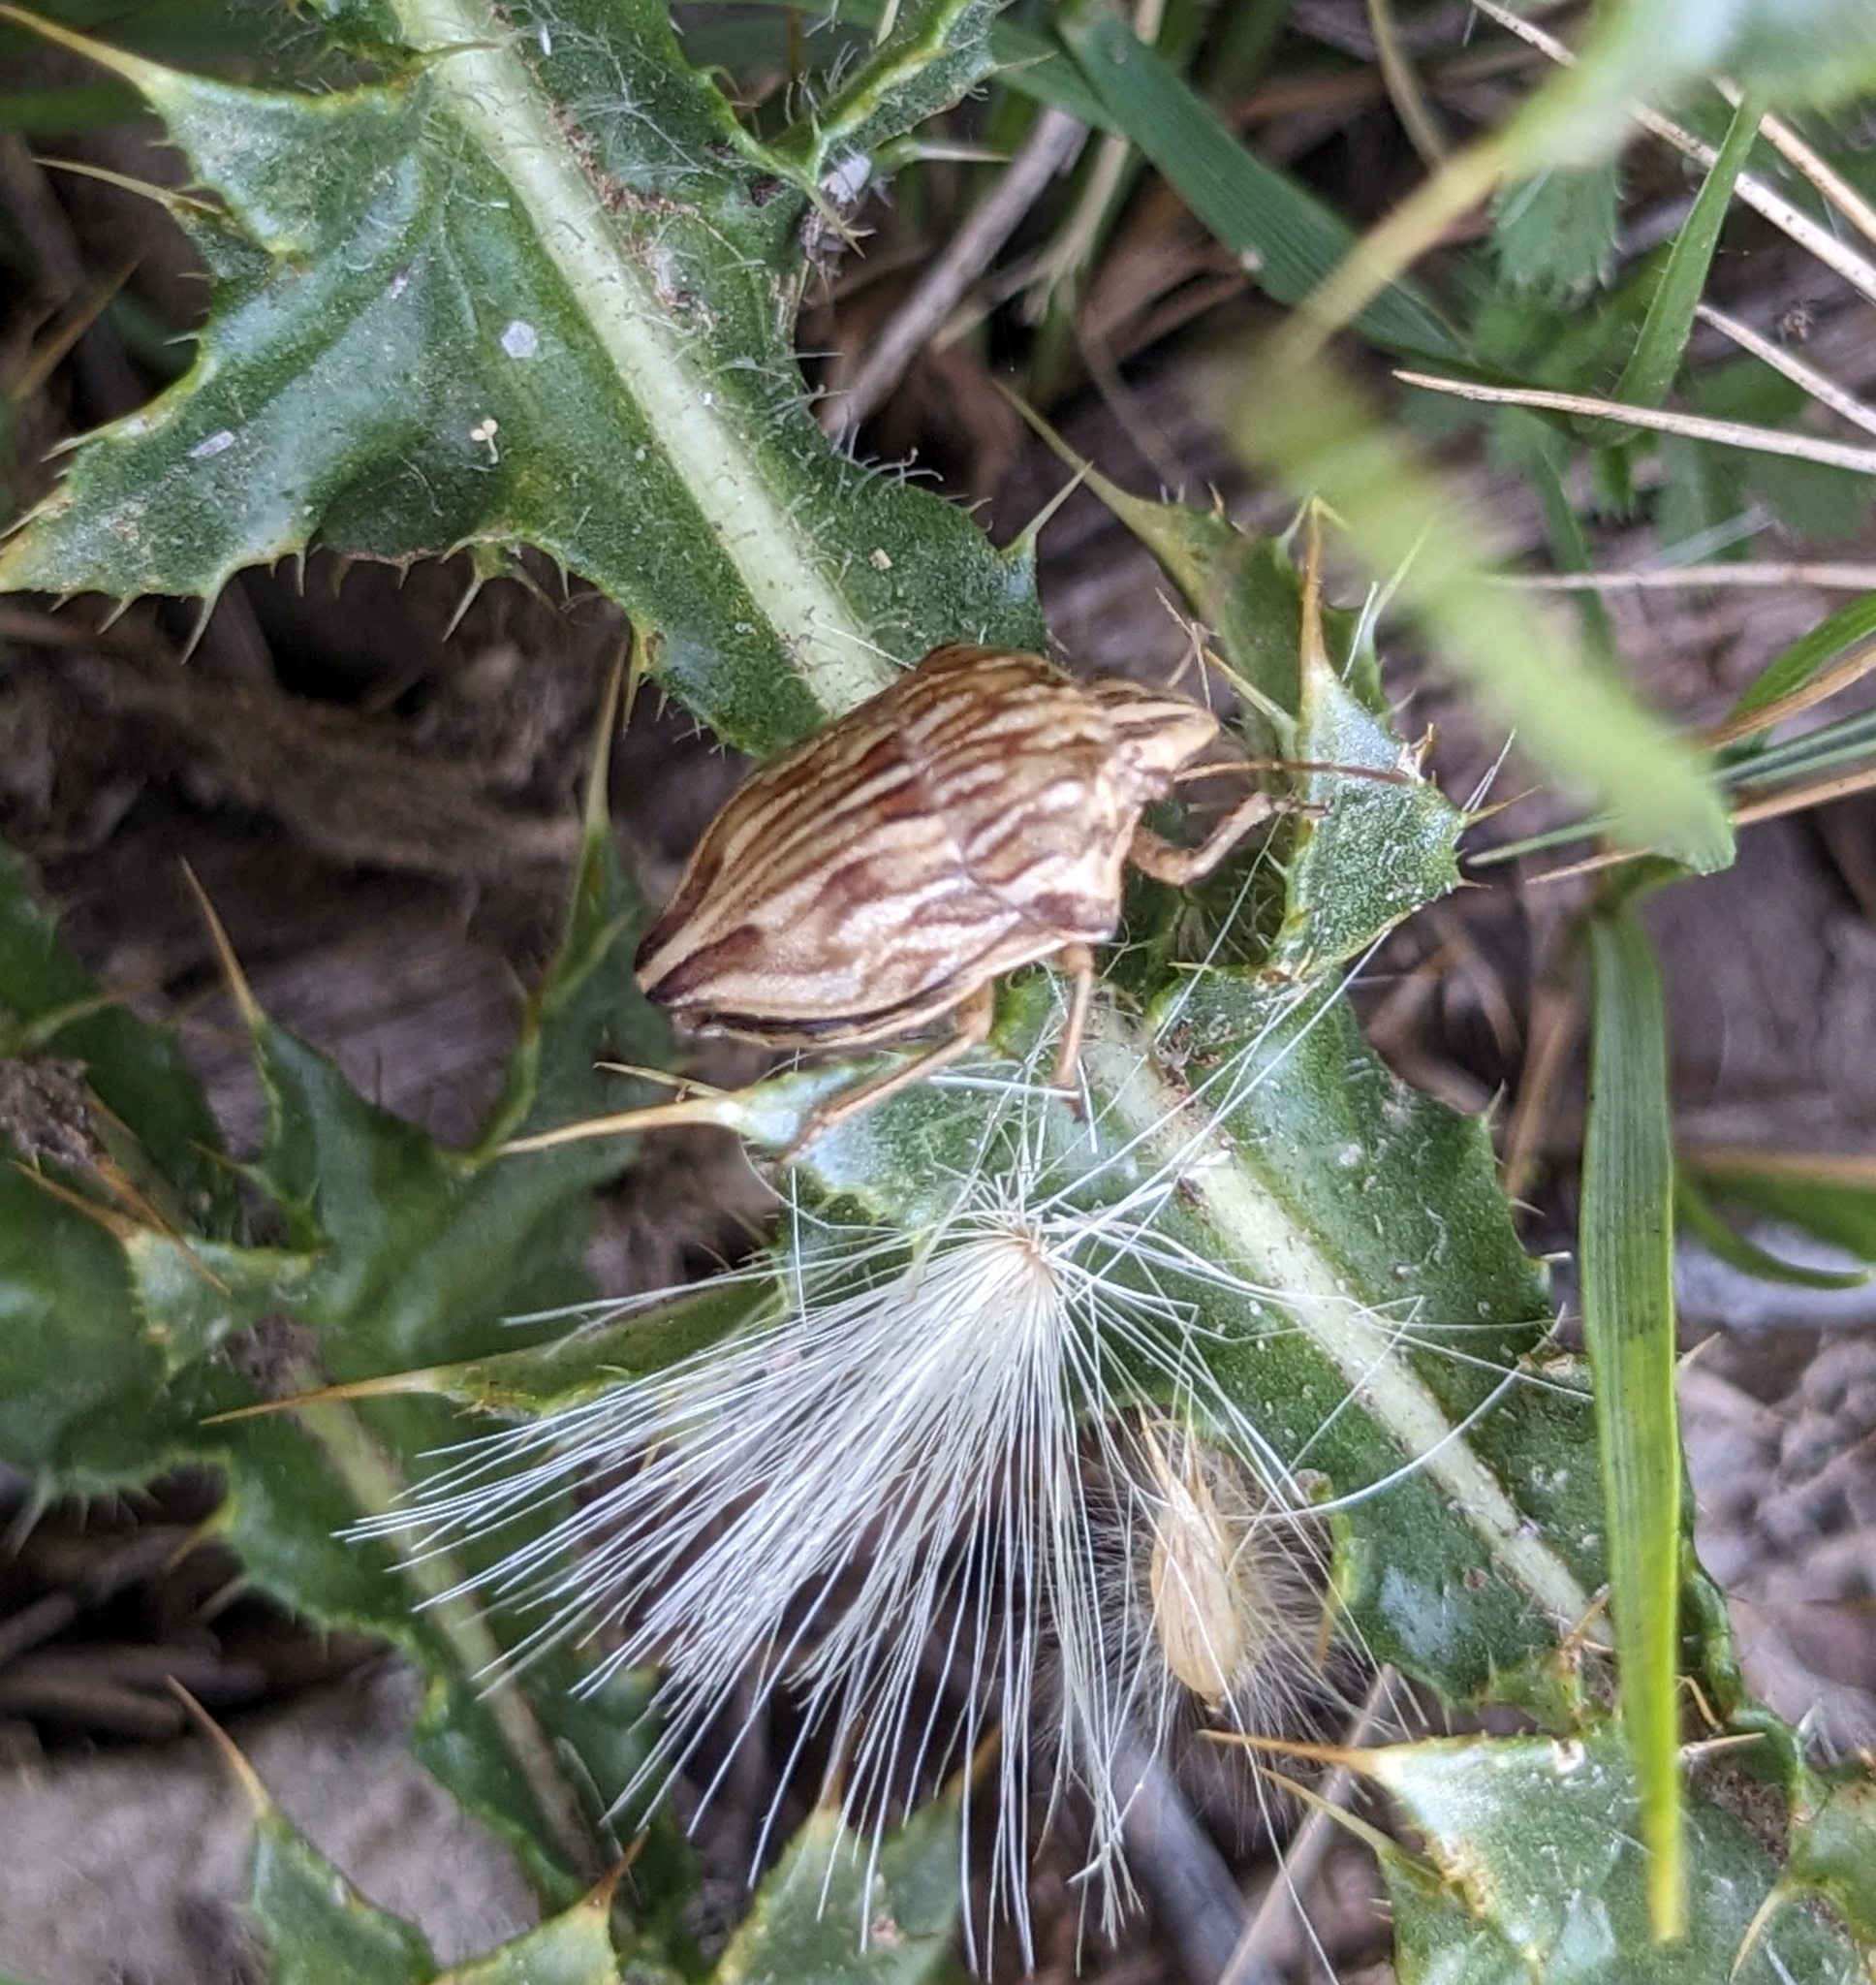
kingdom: Animalia
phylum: Arthropoda
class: Insecta
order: Hemiptera
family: Scutelleridae
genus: Odontotarsus
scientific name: Odontotarsus robustus
